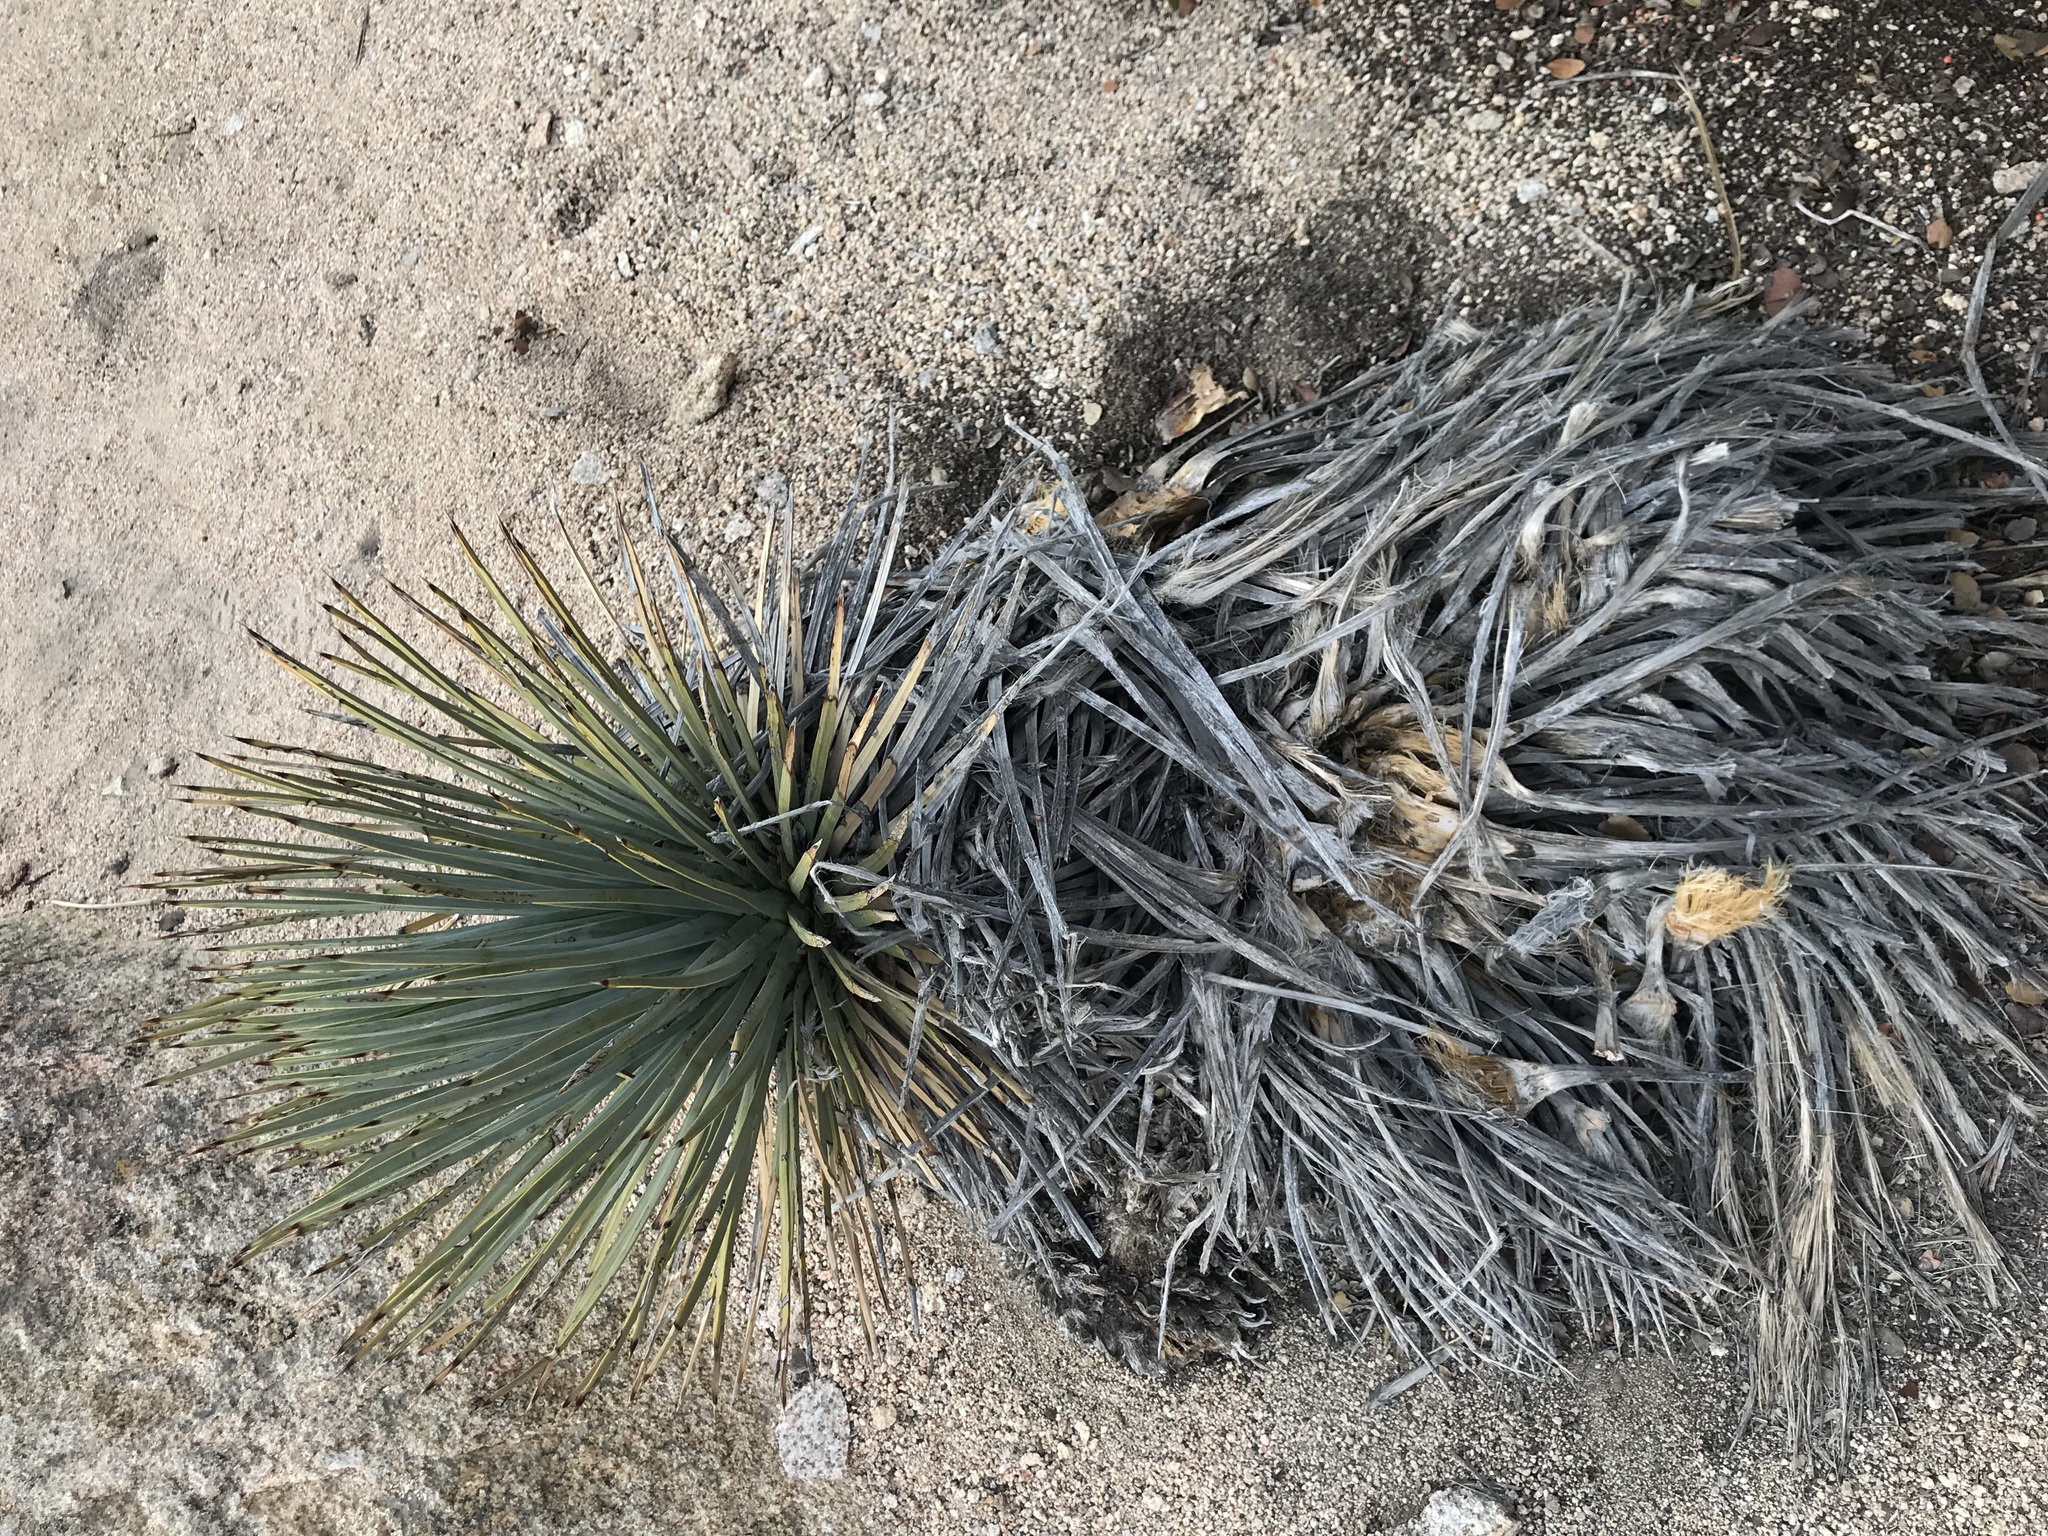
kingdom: Plantae
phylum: Tracheophyta
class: Liliopsida
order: Asparagales
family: Asparagaceae
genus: Hesperoyucca
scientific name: Hesperoyucca whipplei
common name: Our lord's-candle
